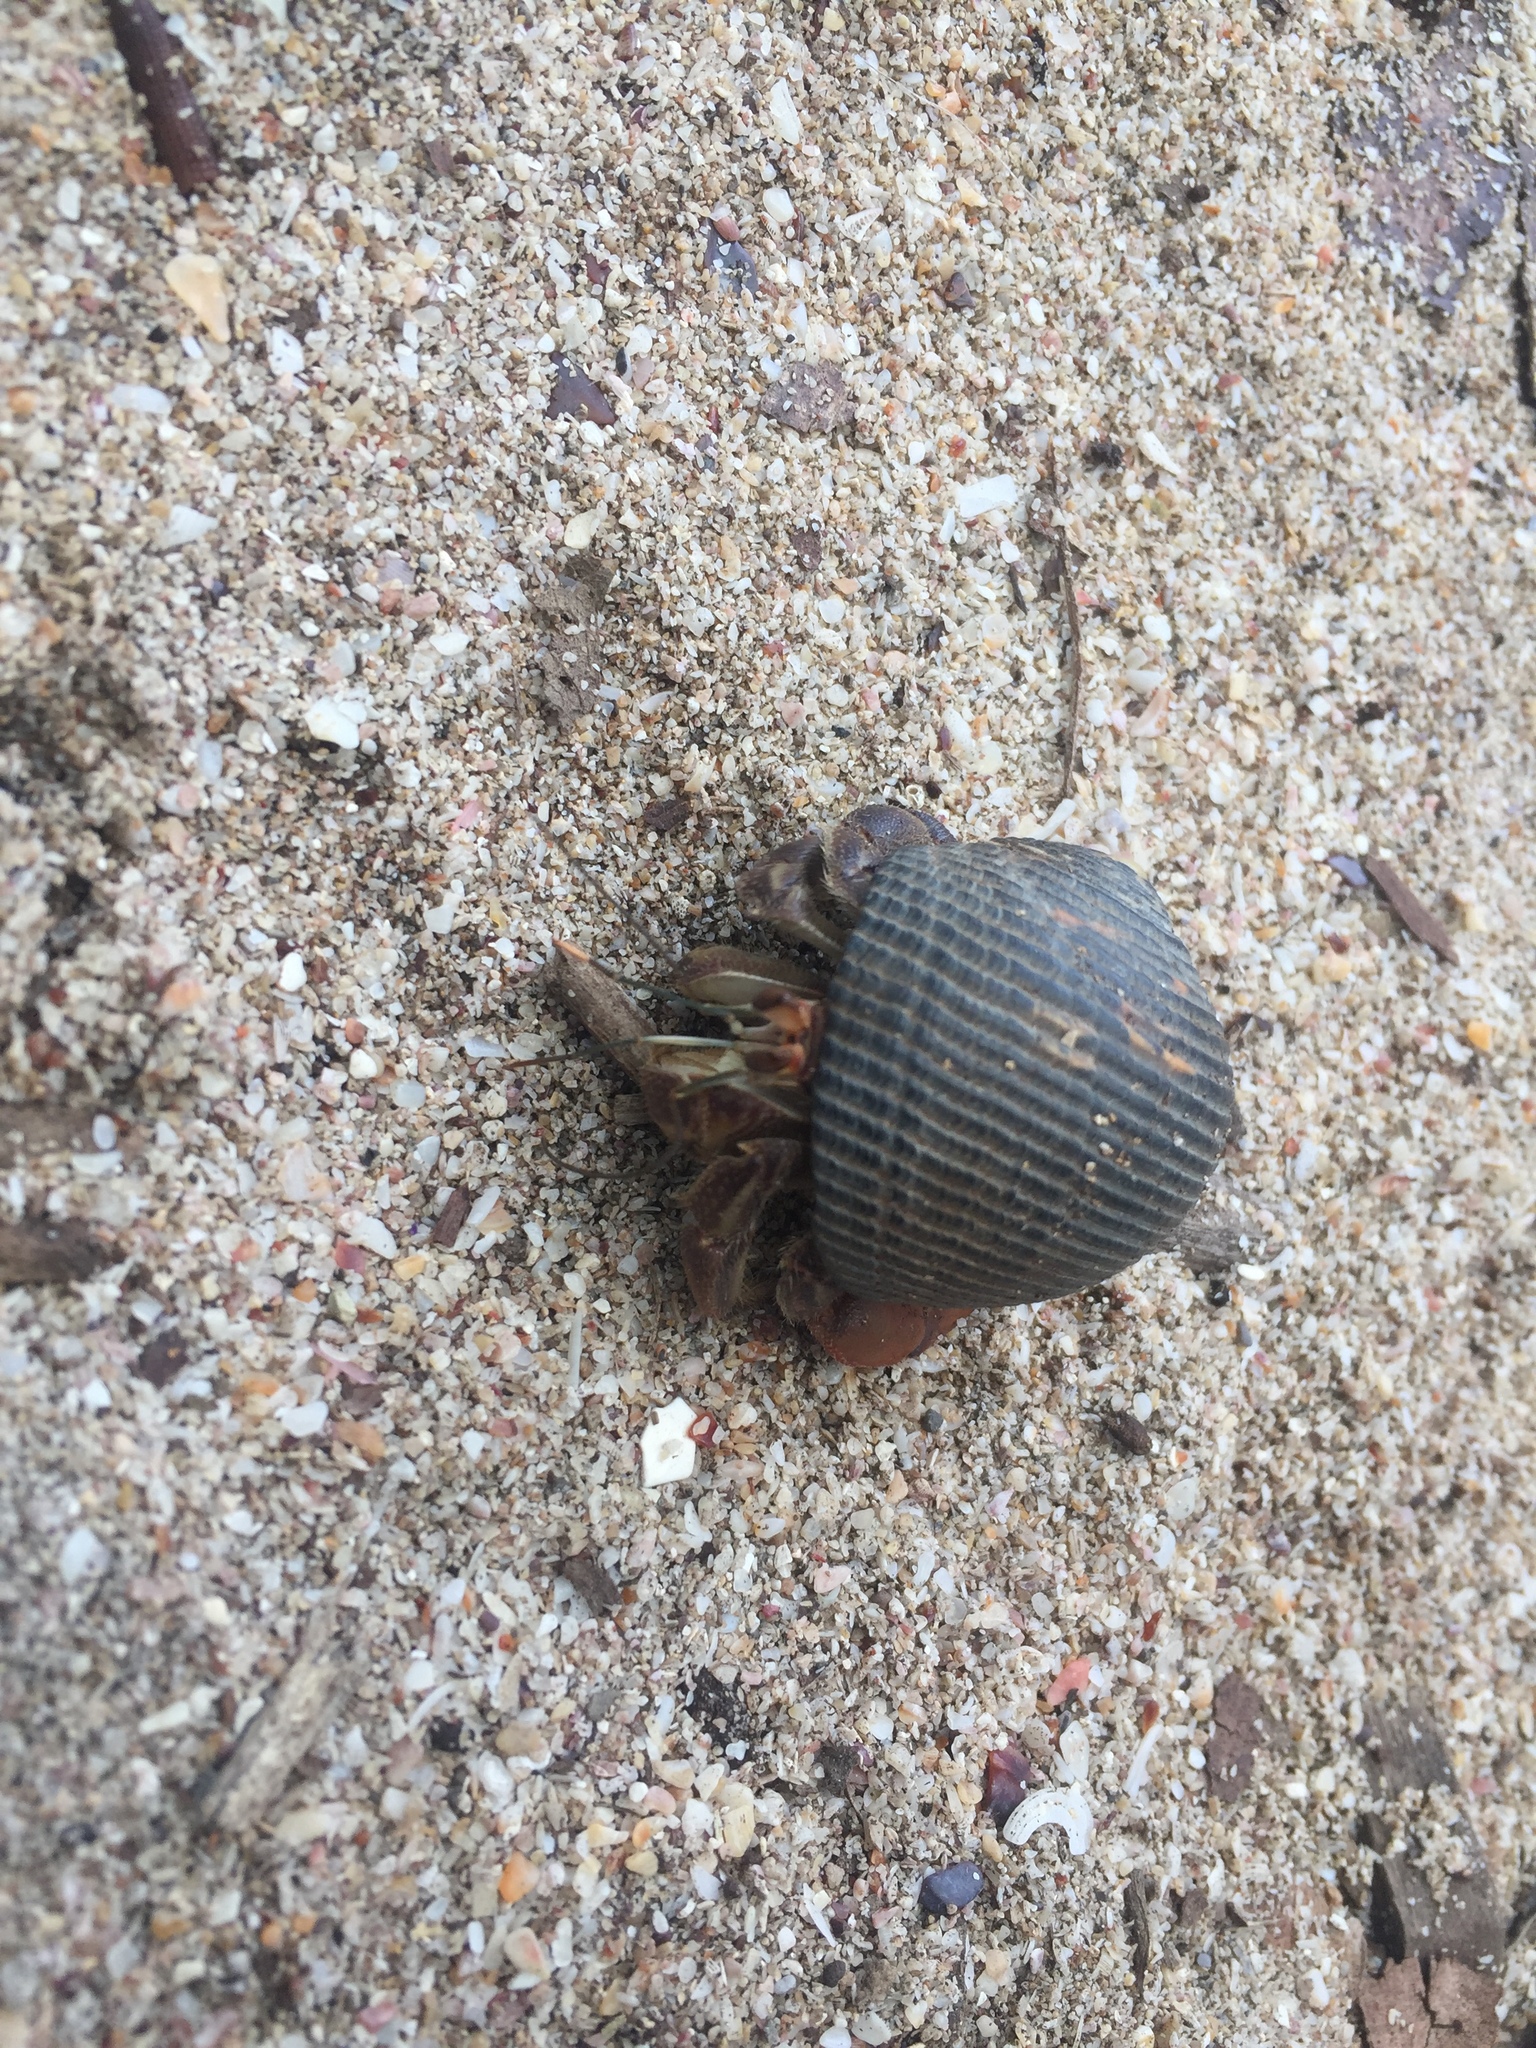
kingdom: Animalia
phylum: Arthropoda
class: Malacostraca
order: Decapoda
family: Coenobitidae
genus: Coenobita
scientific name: Coenobita compressus
